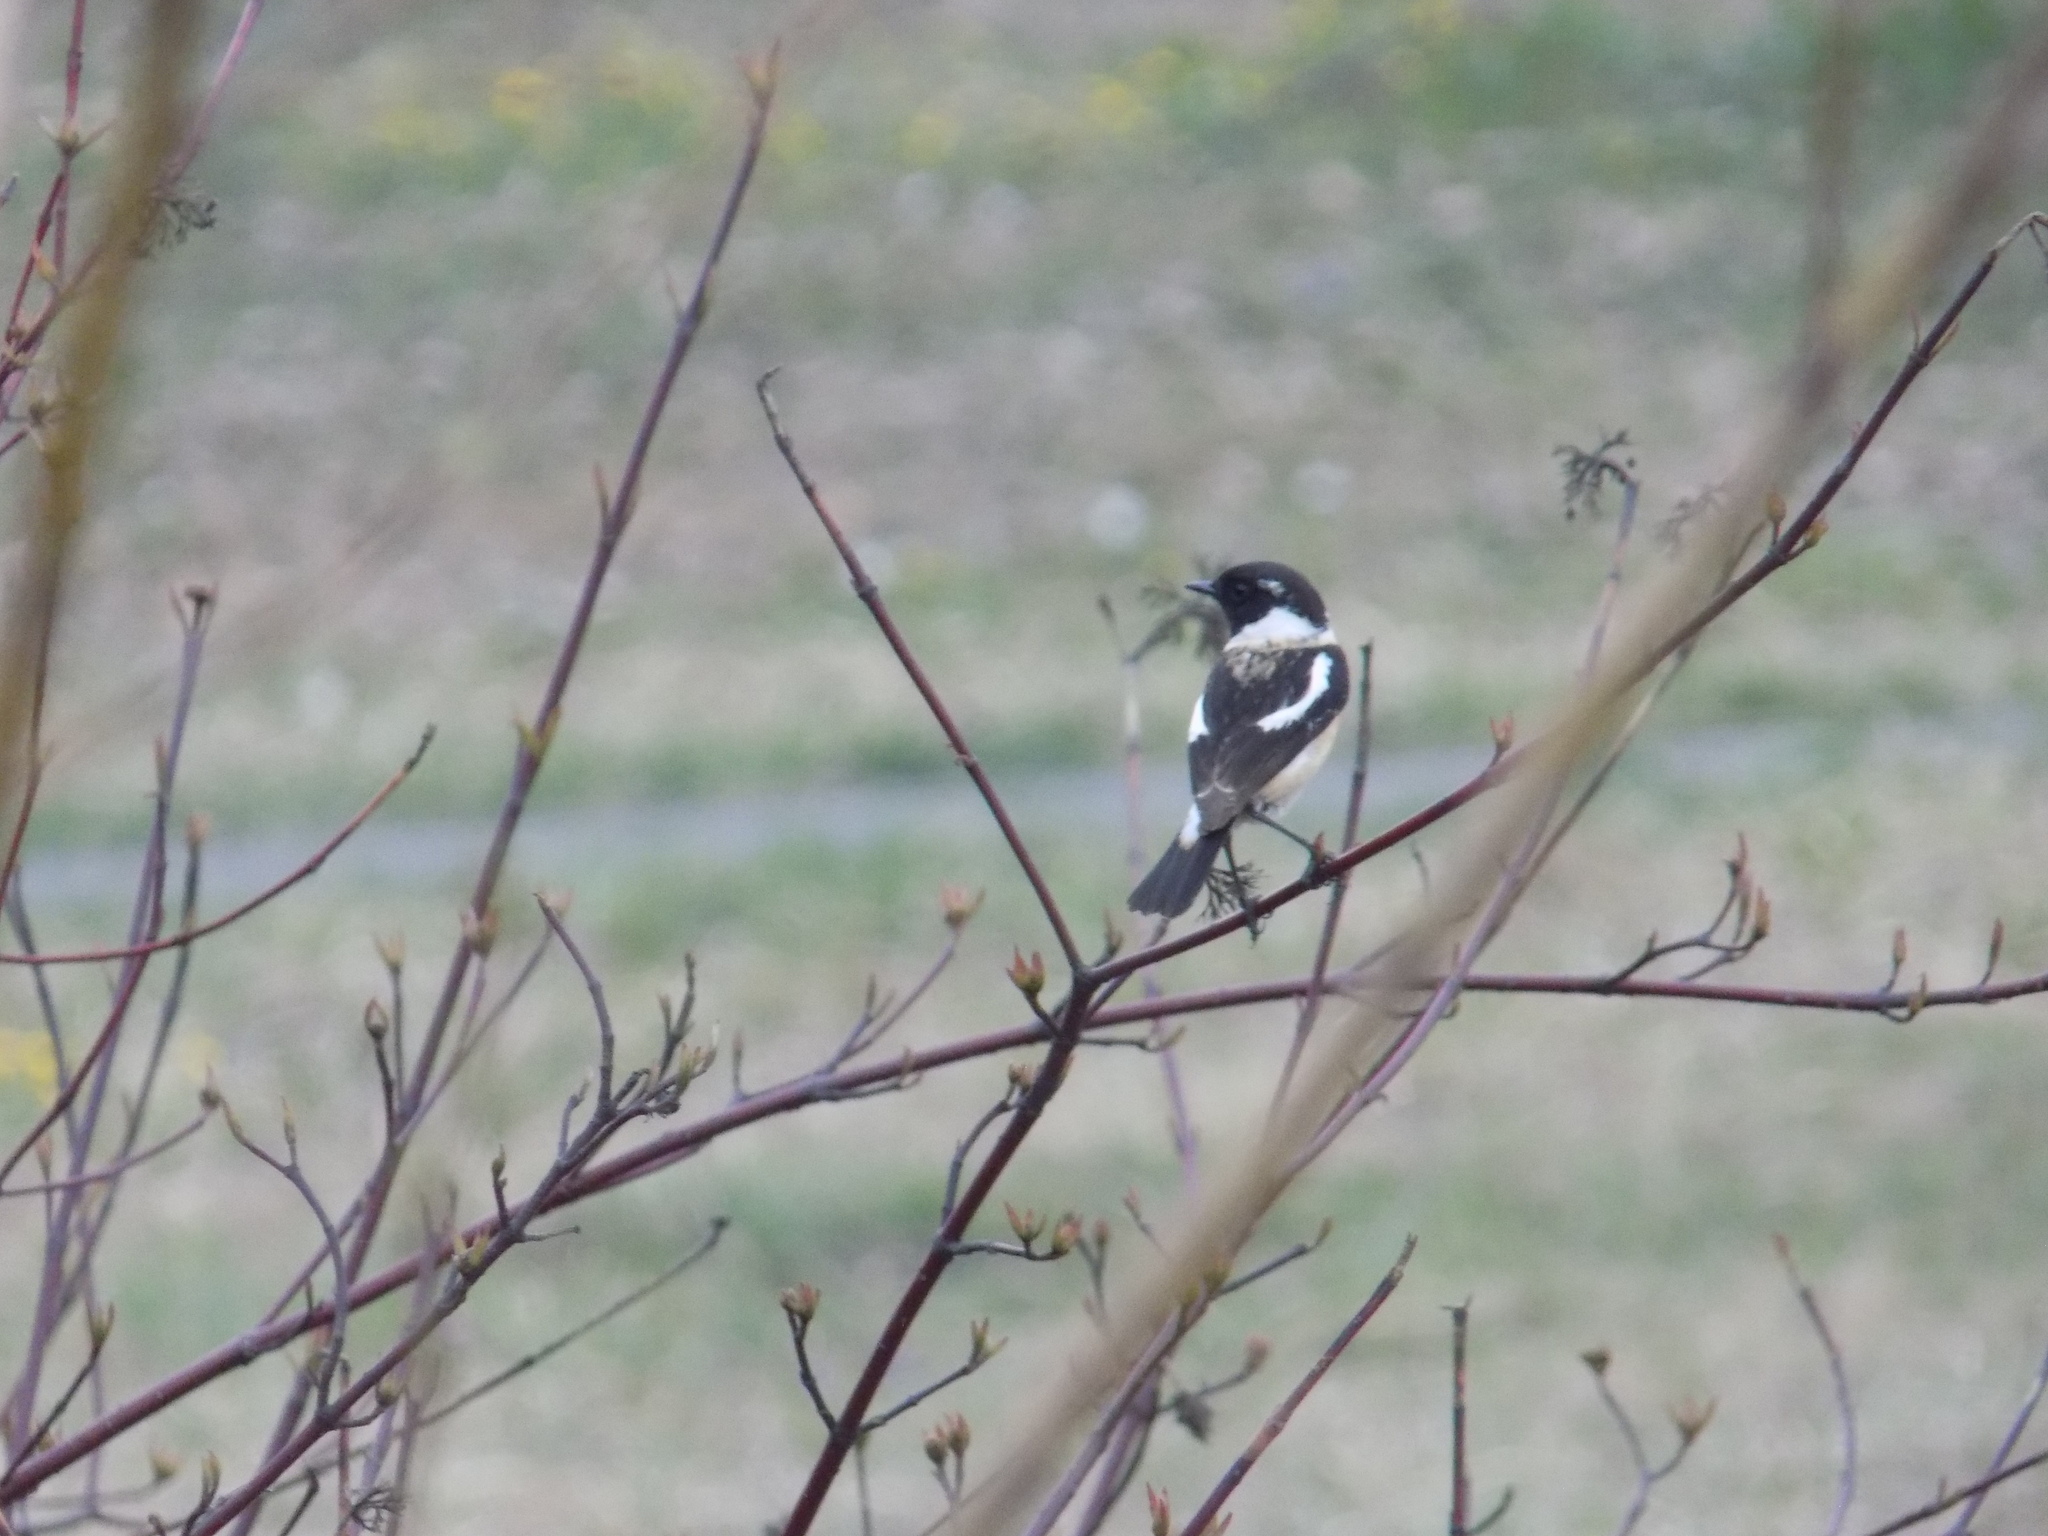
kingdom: Animalia
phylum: Chordata
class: Aves
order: Passeriformes
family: Muscicapidae
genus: Saxicola
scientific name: Saxicola maurus
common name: Siberian stonechat
